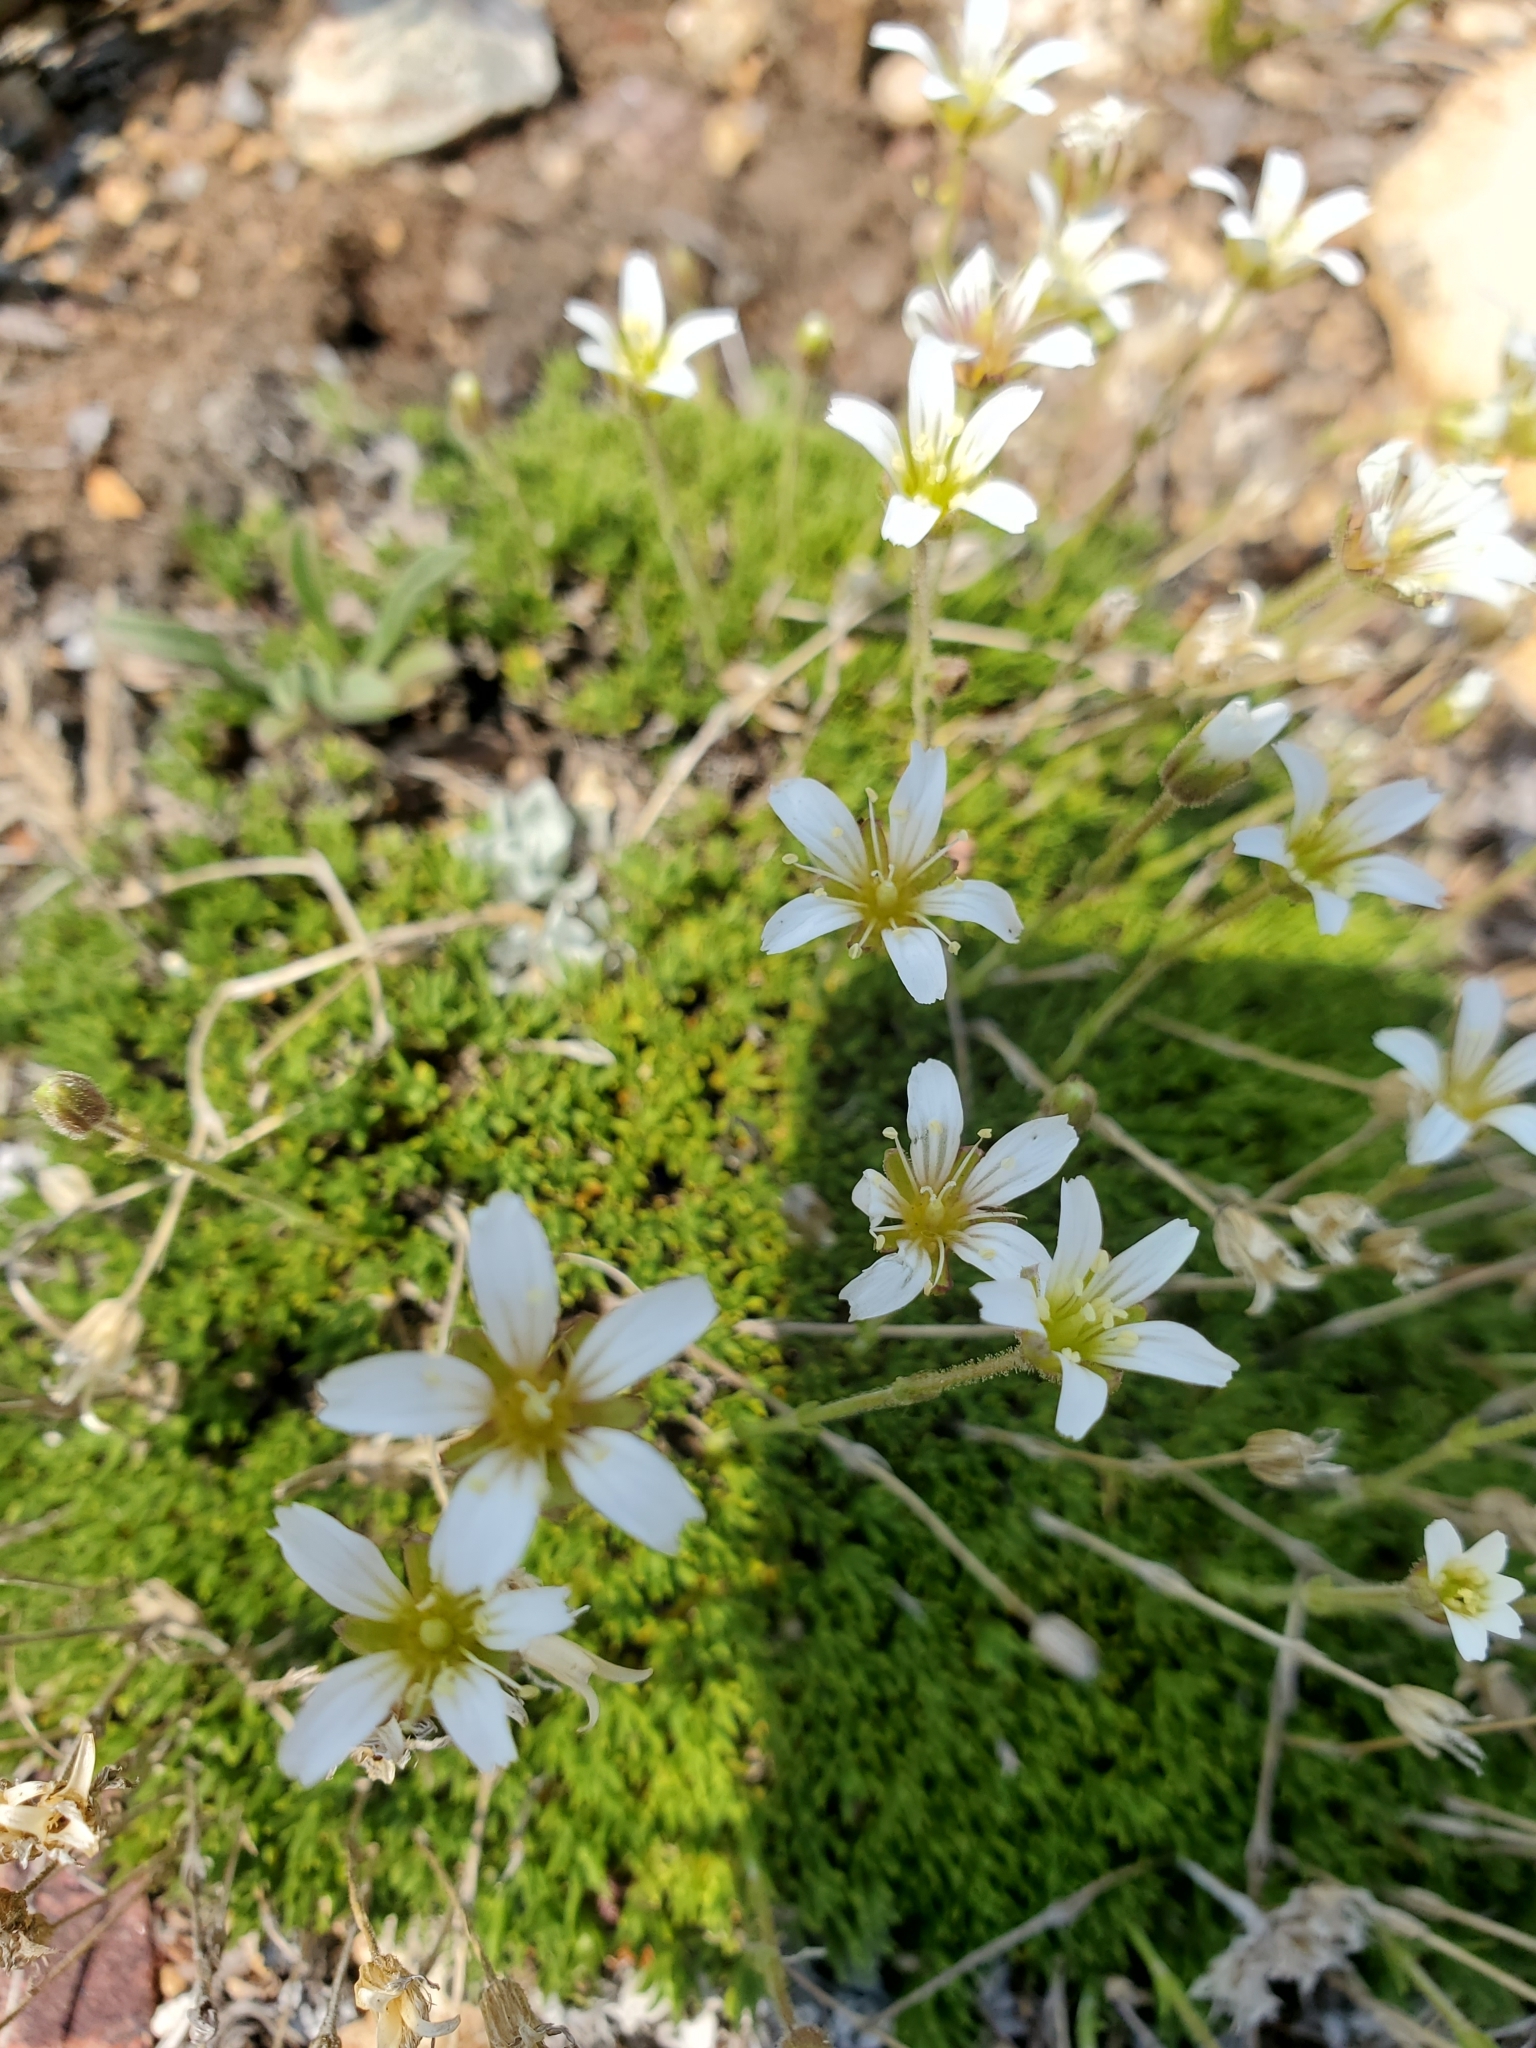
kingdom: Plantae
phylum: Tracheophyta
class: Magnoliopsida
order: Caryophyllales
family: Caryophyllaceae
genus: Cherleria
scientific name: Cherleria obtusiloba
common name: Alpine stitchwort
